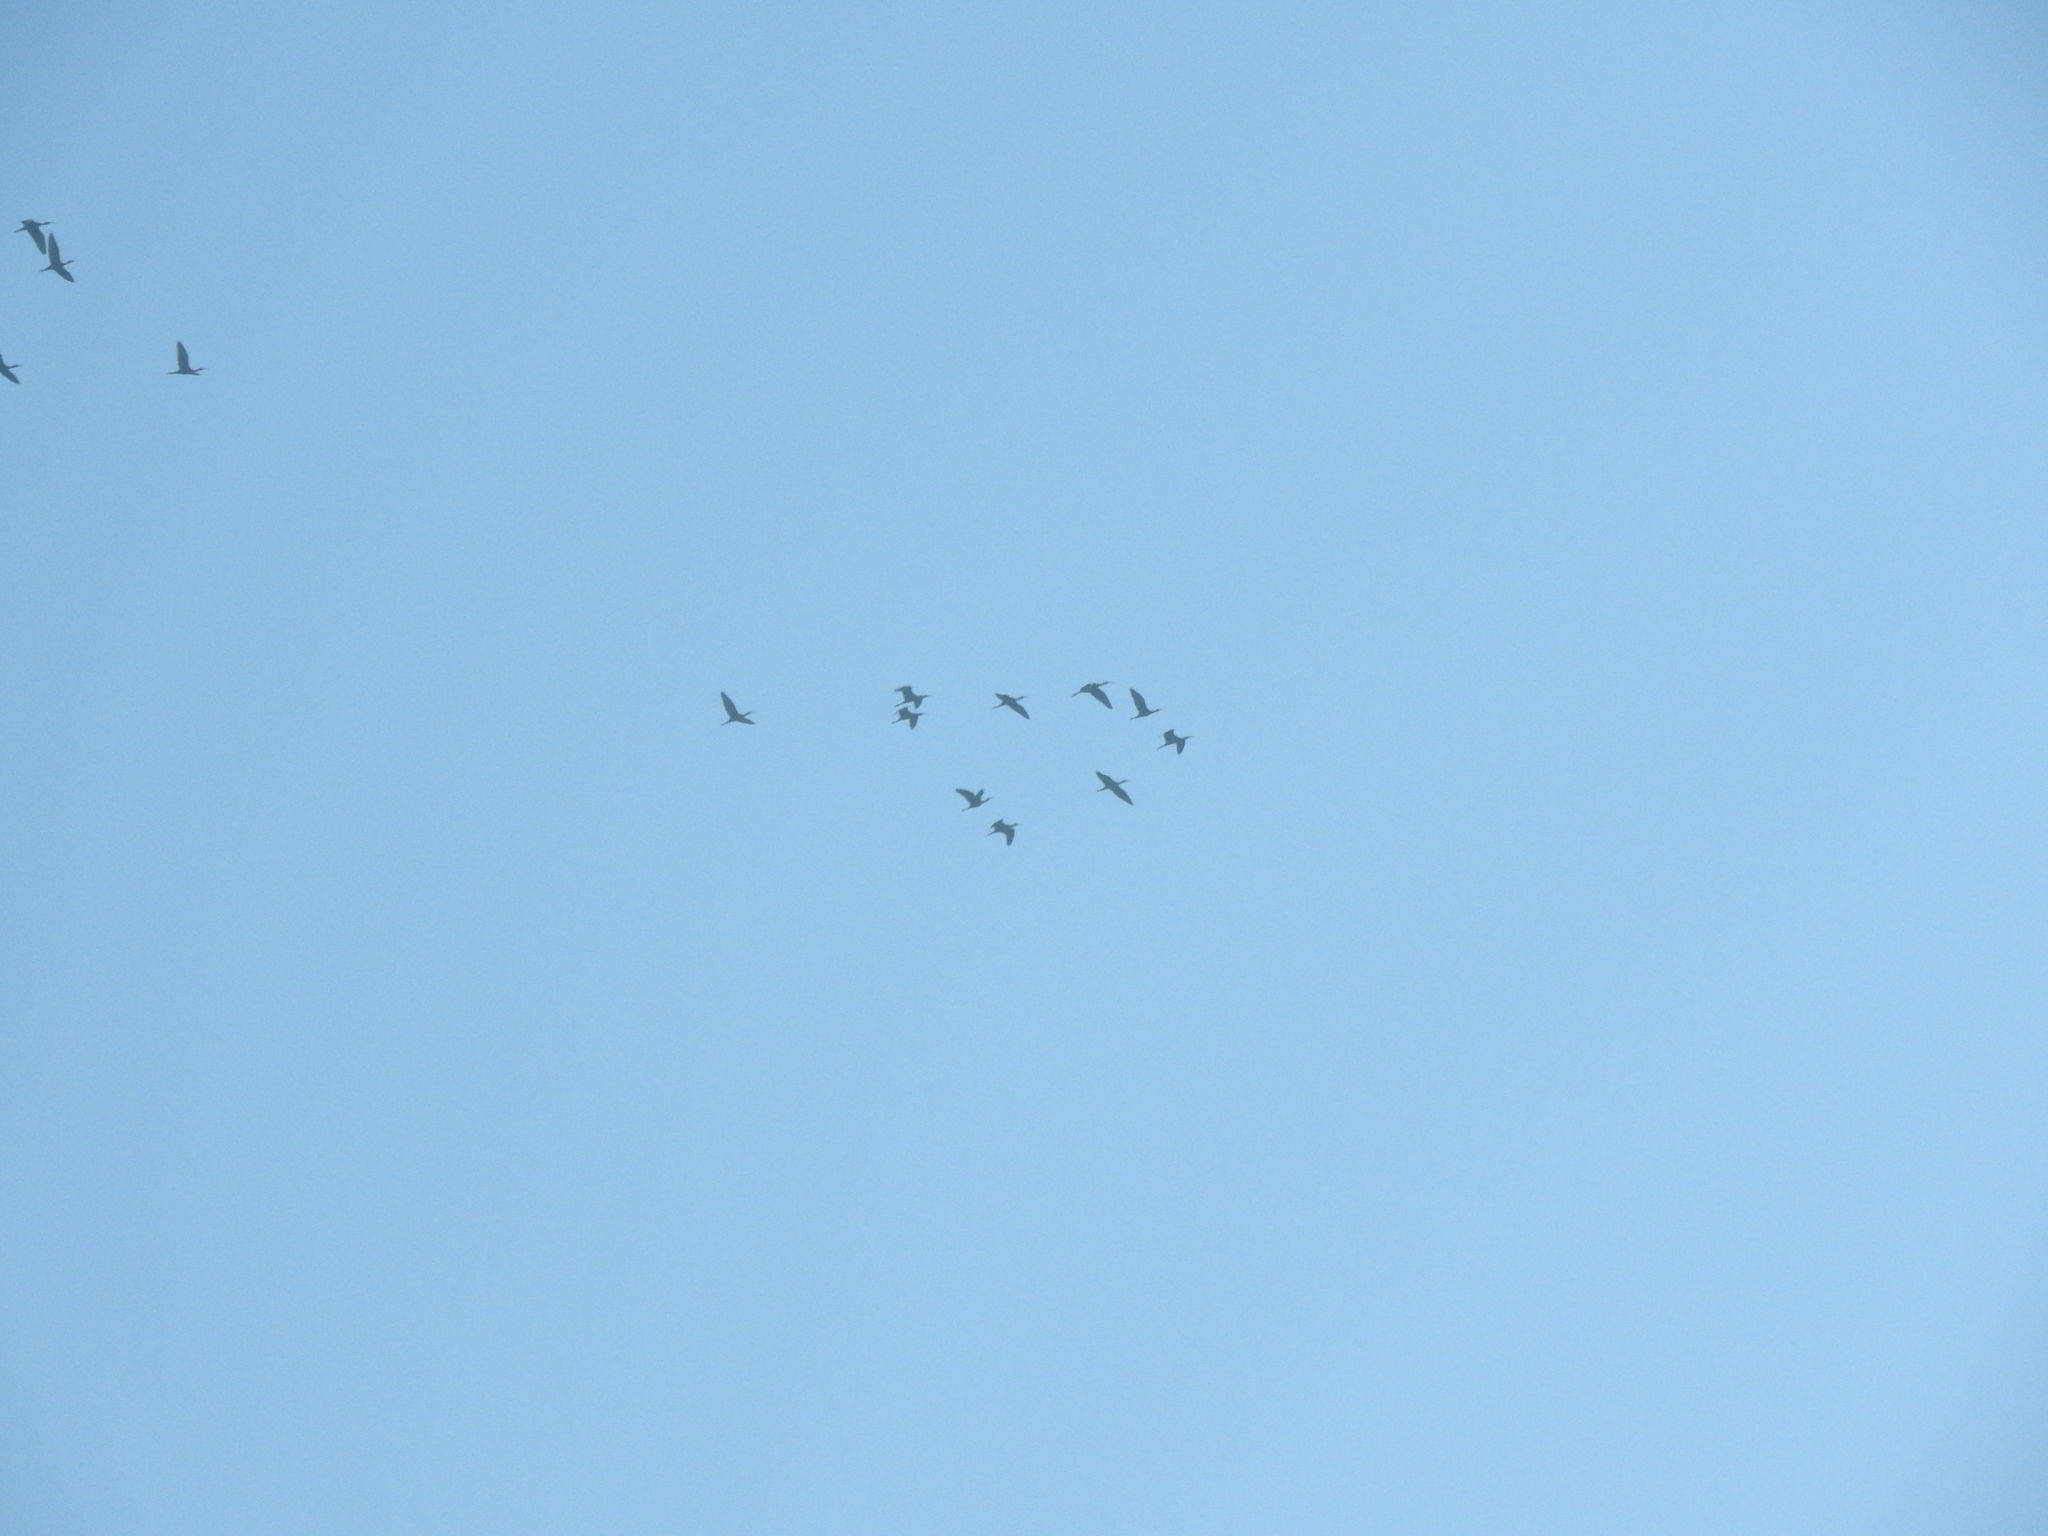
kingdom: Animalia
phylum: Chordata
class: Aves
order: Pelecaniformes
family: Threskiornithidae
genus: Plegadis
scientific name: Plegadis chihi
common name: White-faced ibis
